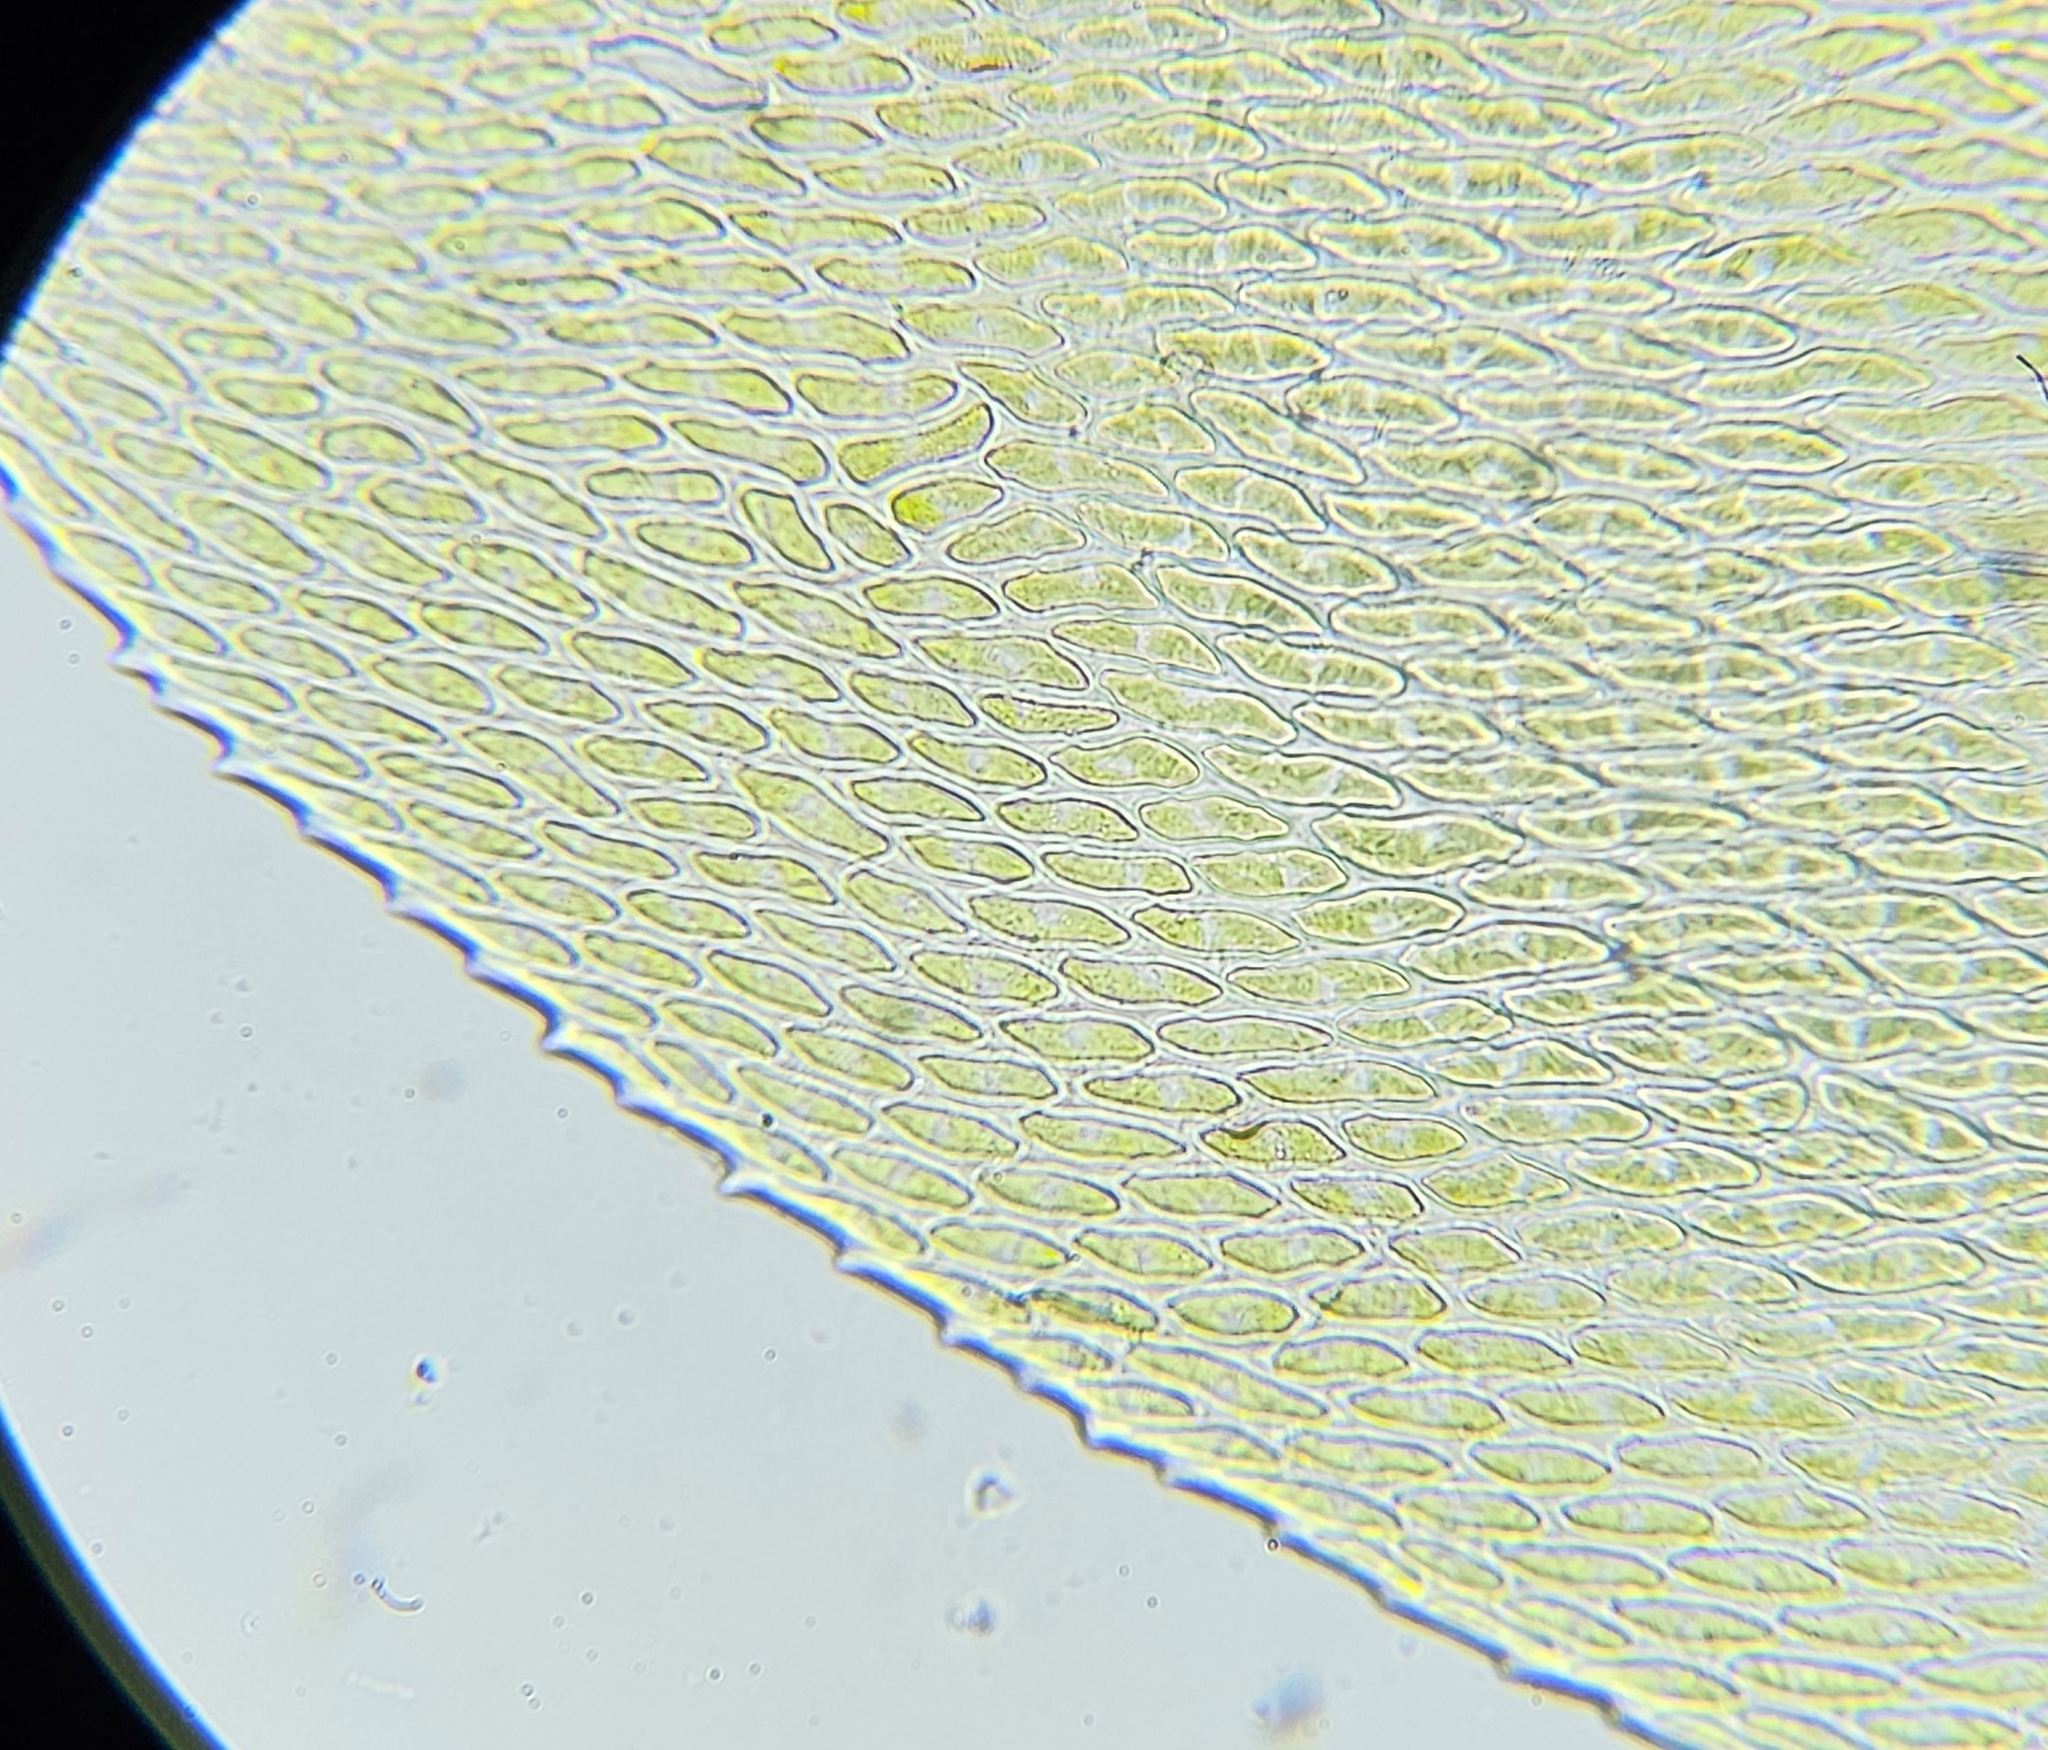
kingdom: Plantae
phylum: Bryophyta
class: Bryopsida
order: Hypnales
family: Neckeraceae
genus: Exsertotheca
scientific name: Exsertotheca crispa
